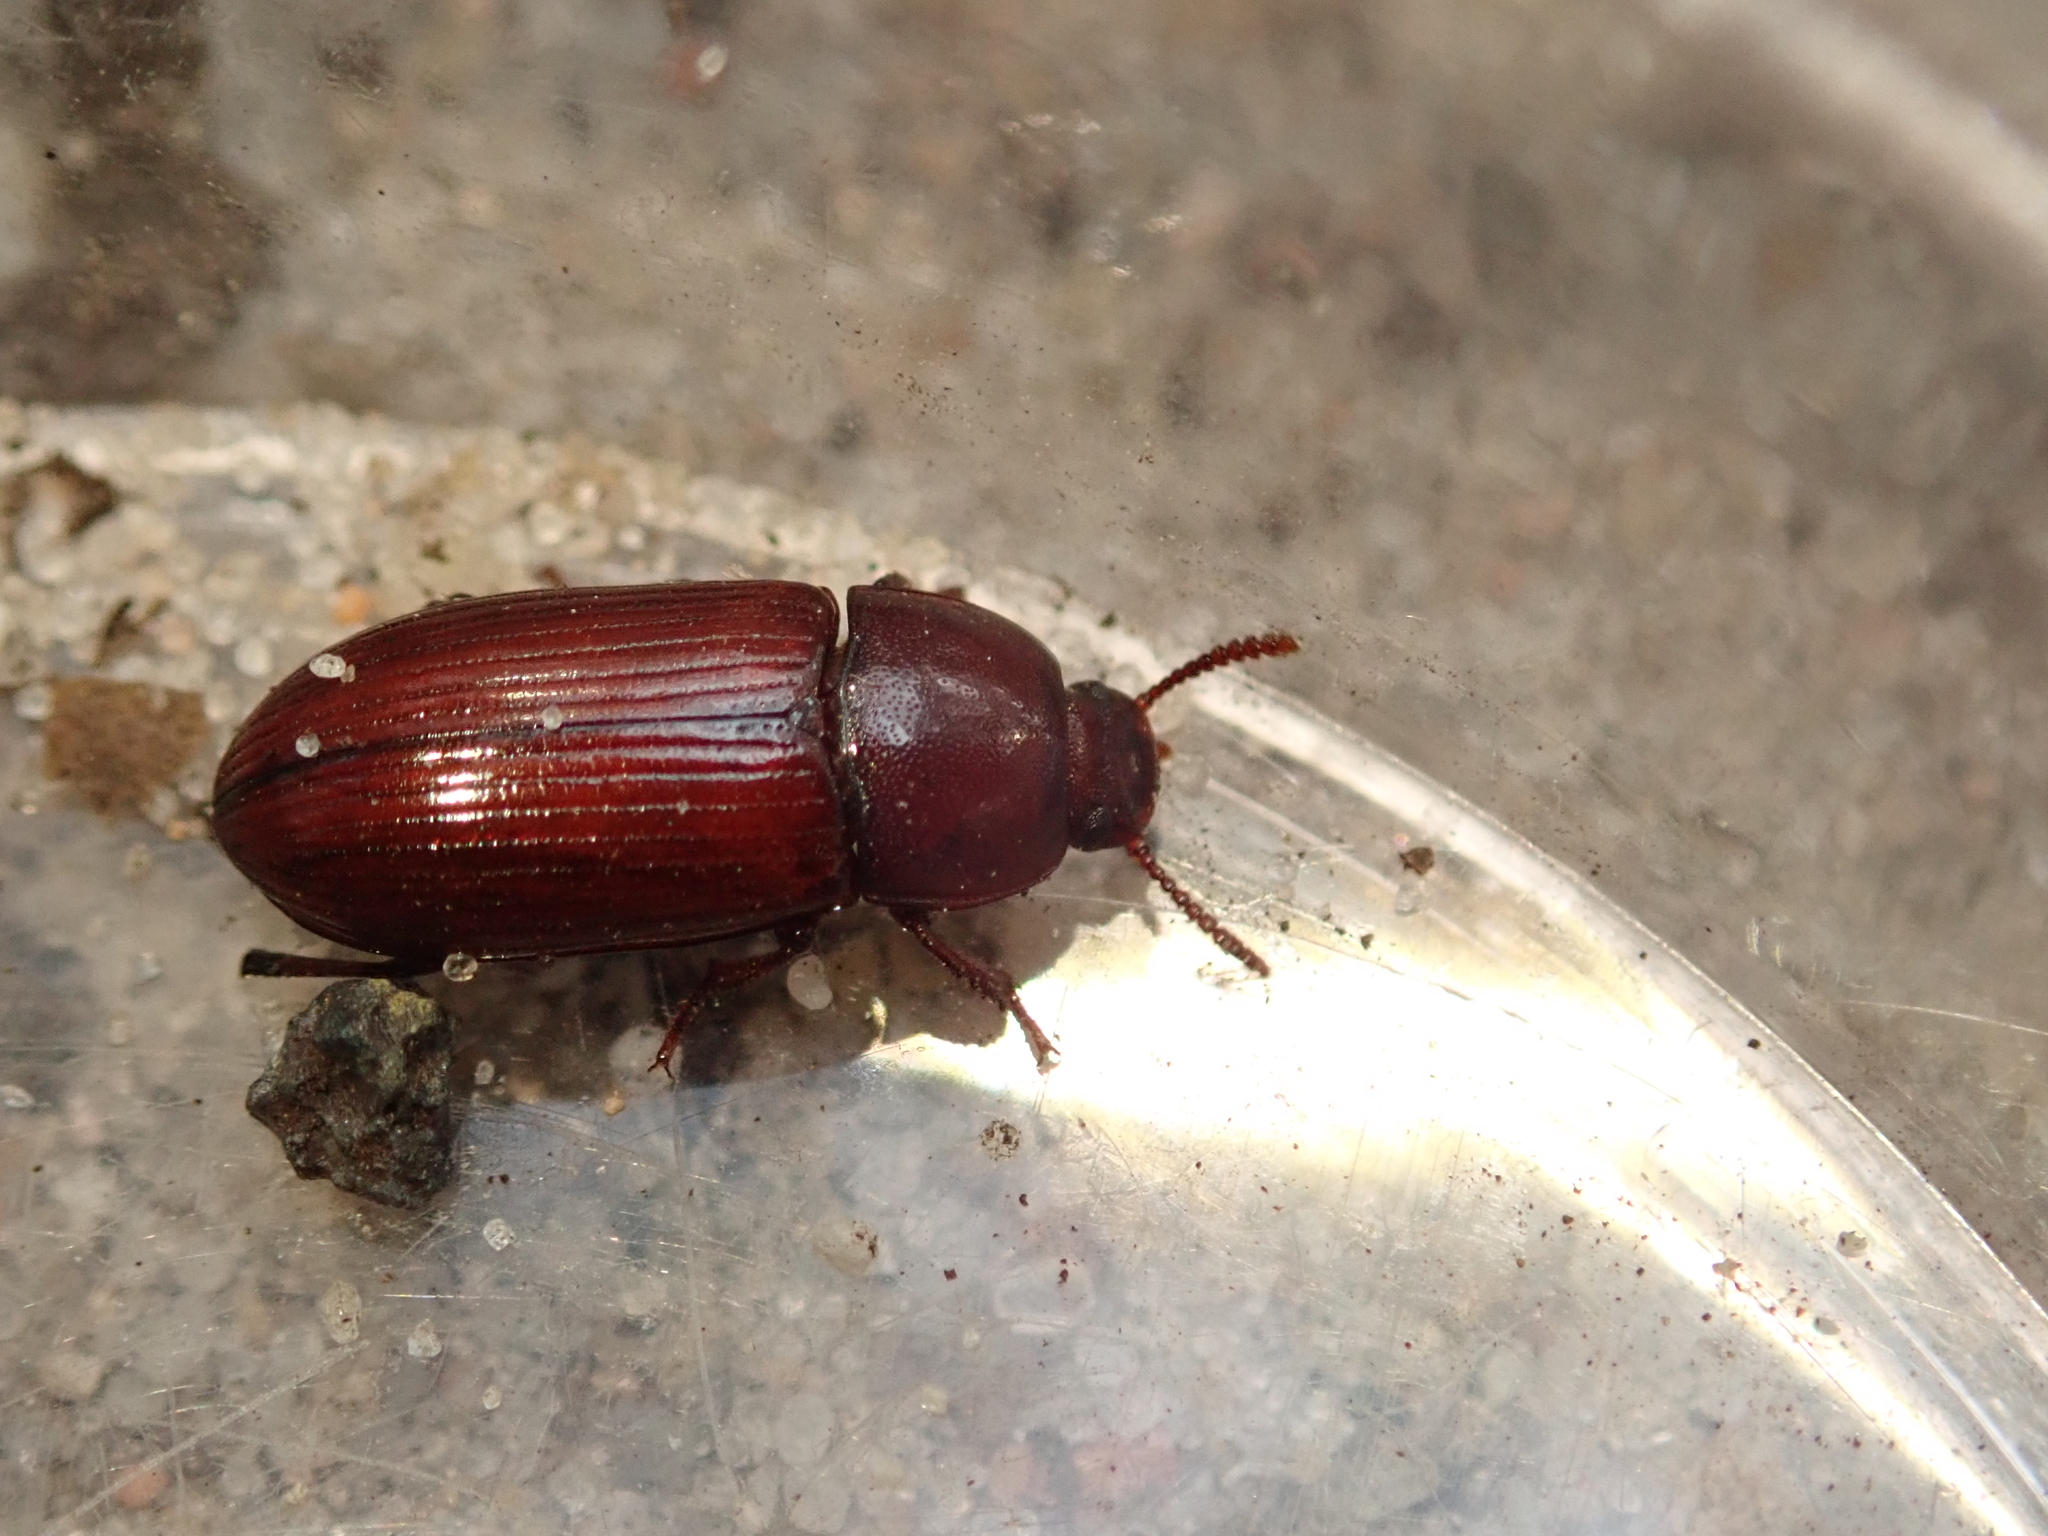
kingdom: Animalia
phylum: Arthropoda
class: Insecta
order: Coleoptera
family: Tenebrionidae
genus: Uloma
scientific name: Uloma culinaris
